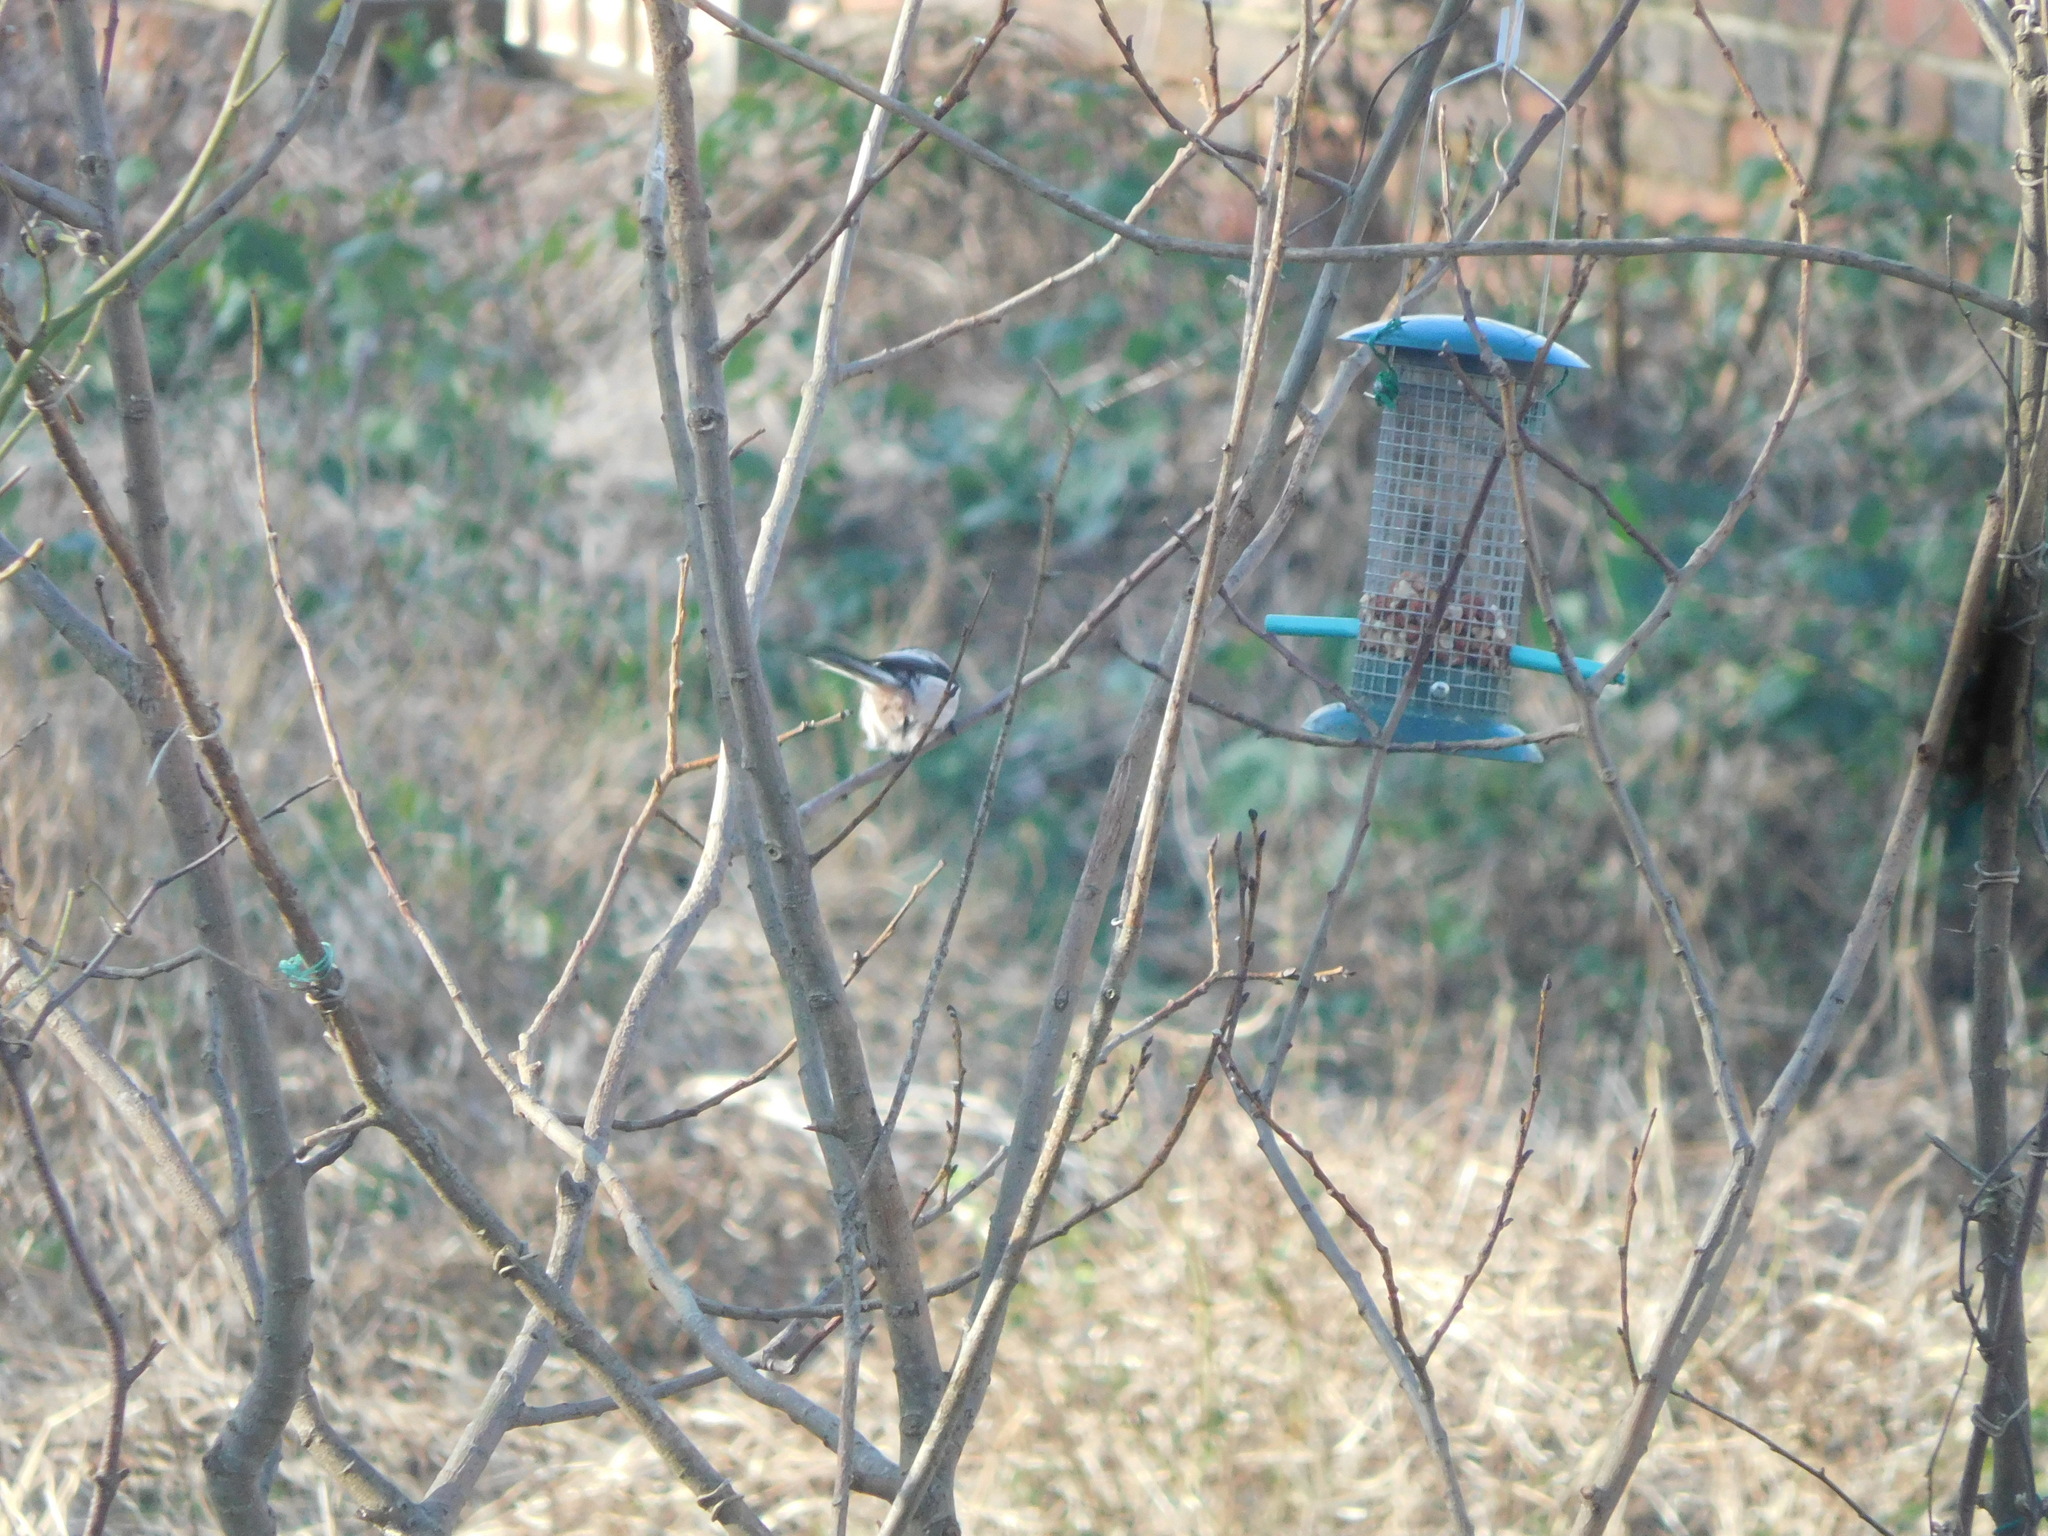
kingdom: Animalia
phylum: Chordata
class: Aves
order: Passeriformes
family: Aegithalidae
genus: Aegithalos
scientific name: Aegithalos caudatus
